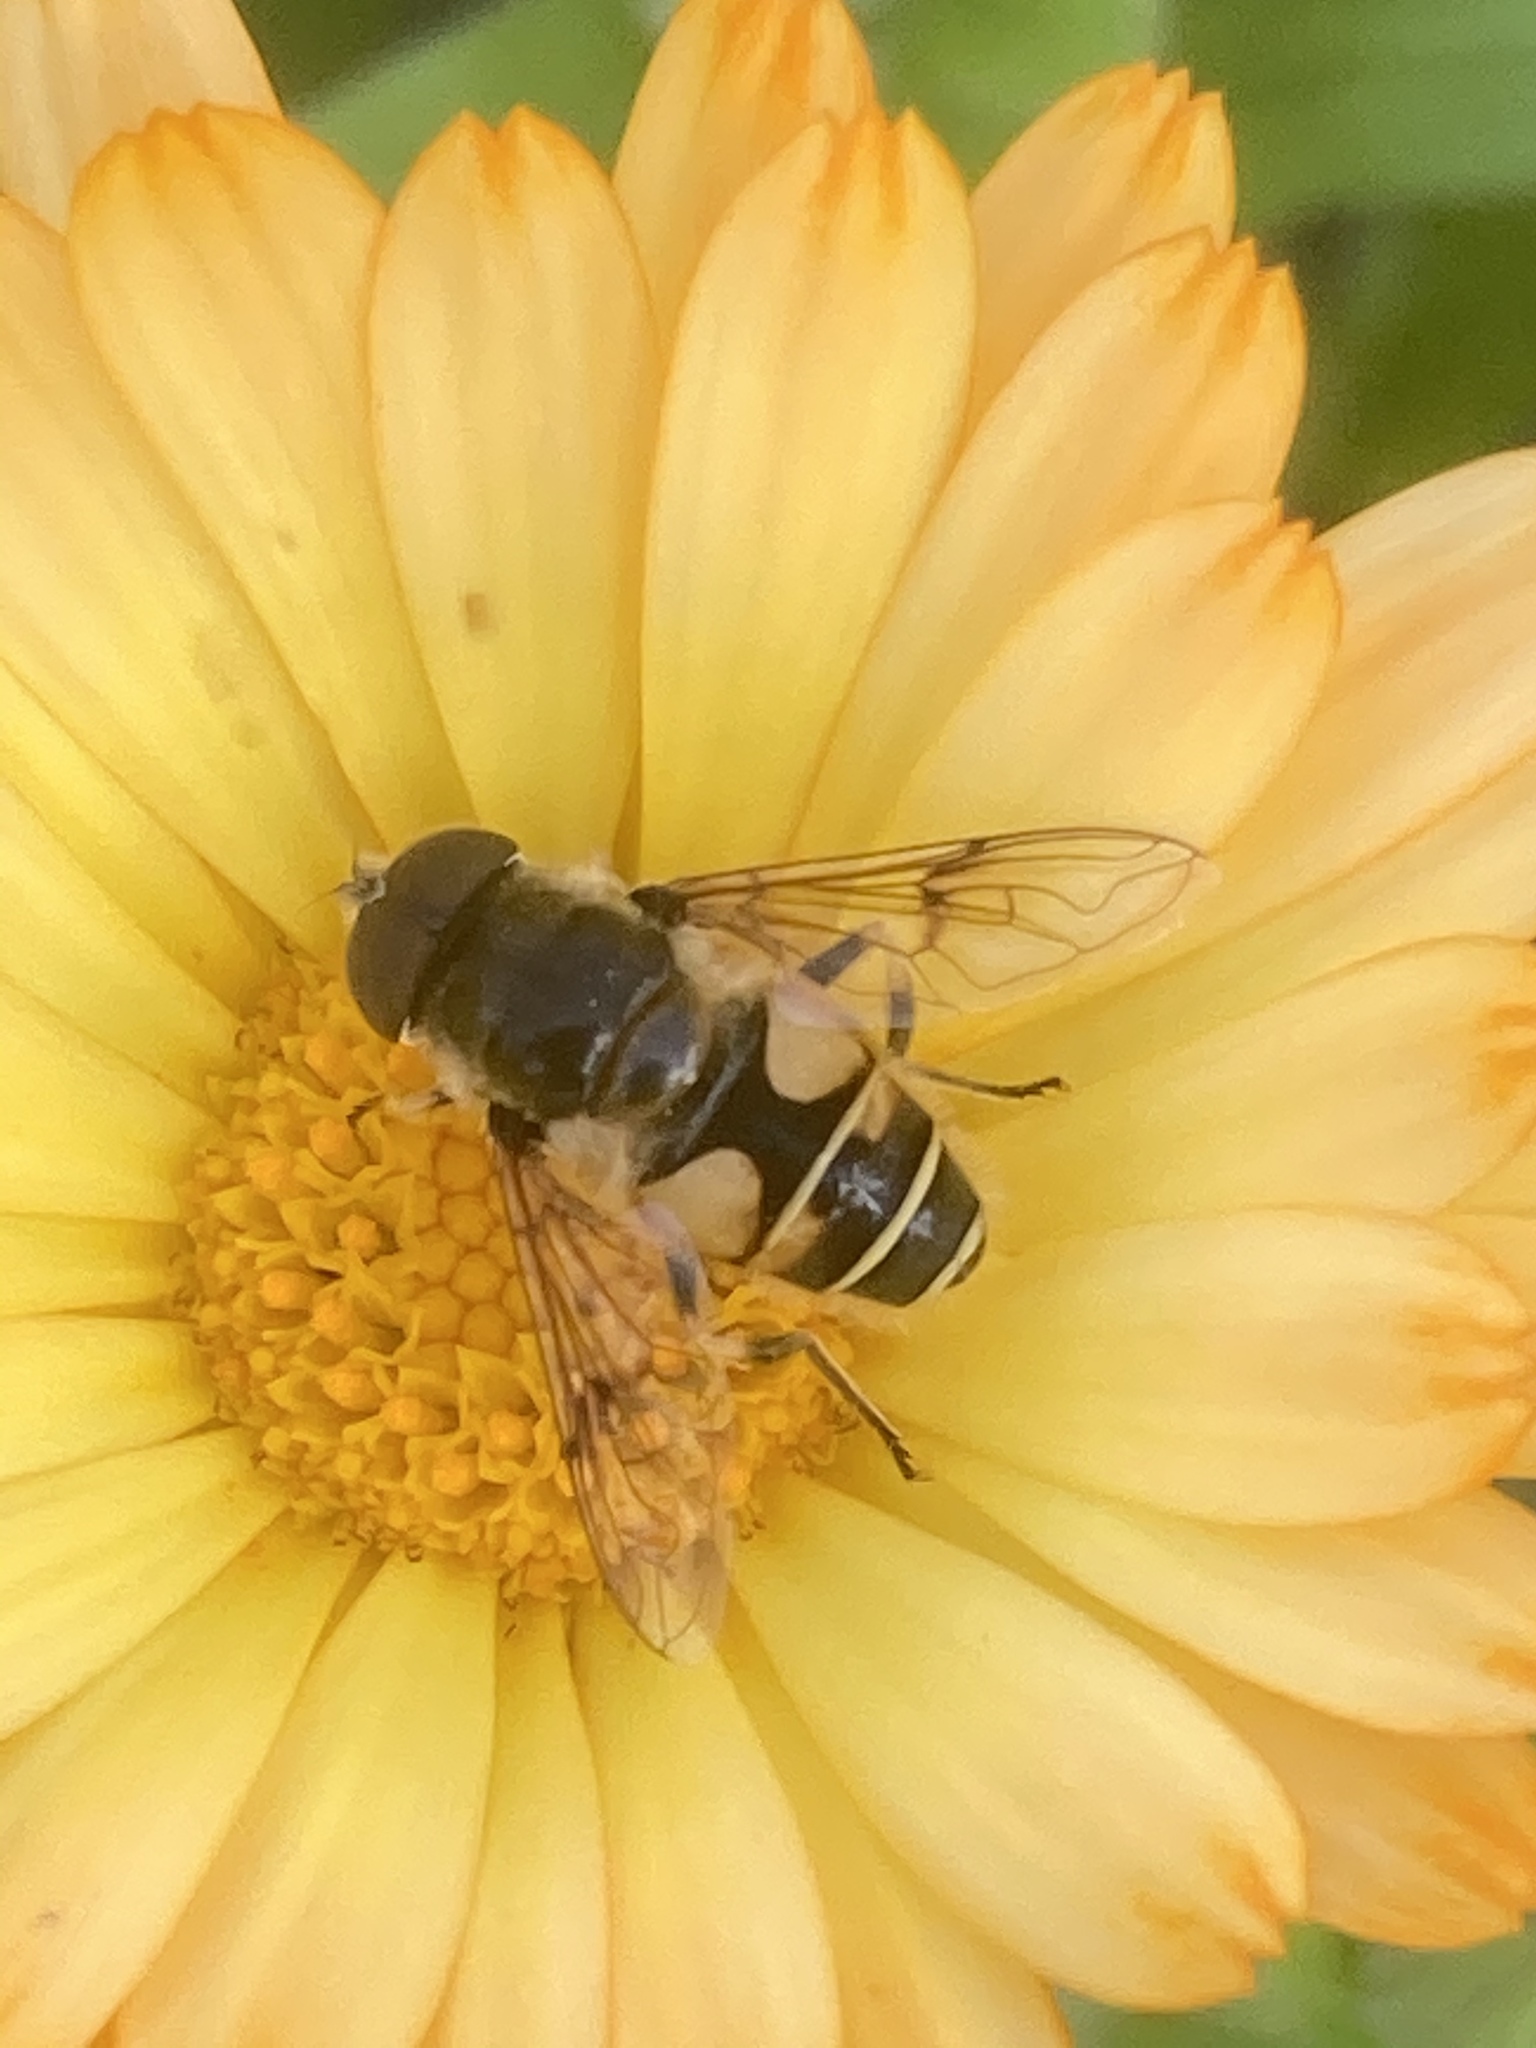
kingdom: Animalia
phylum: Arthropoda
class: Insecta
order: Diptera
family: Syrphidae
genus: Cheilosia
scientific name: Cheilosia morio
